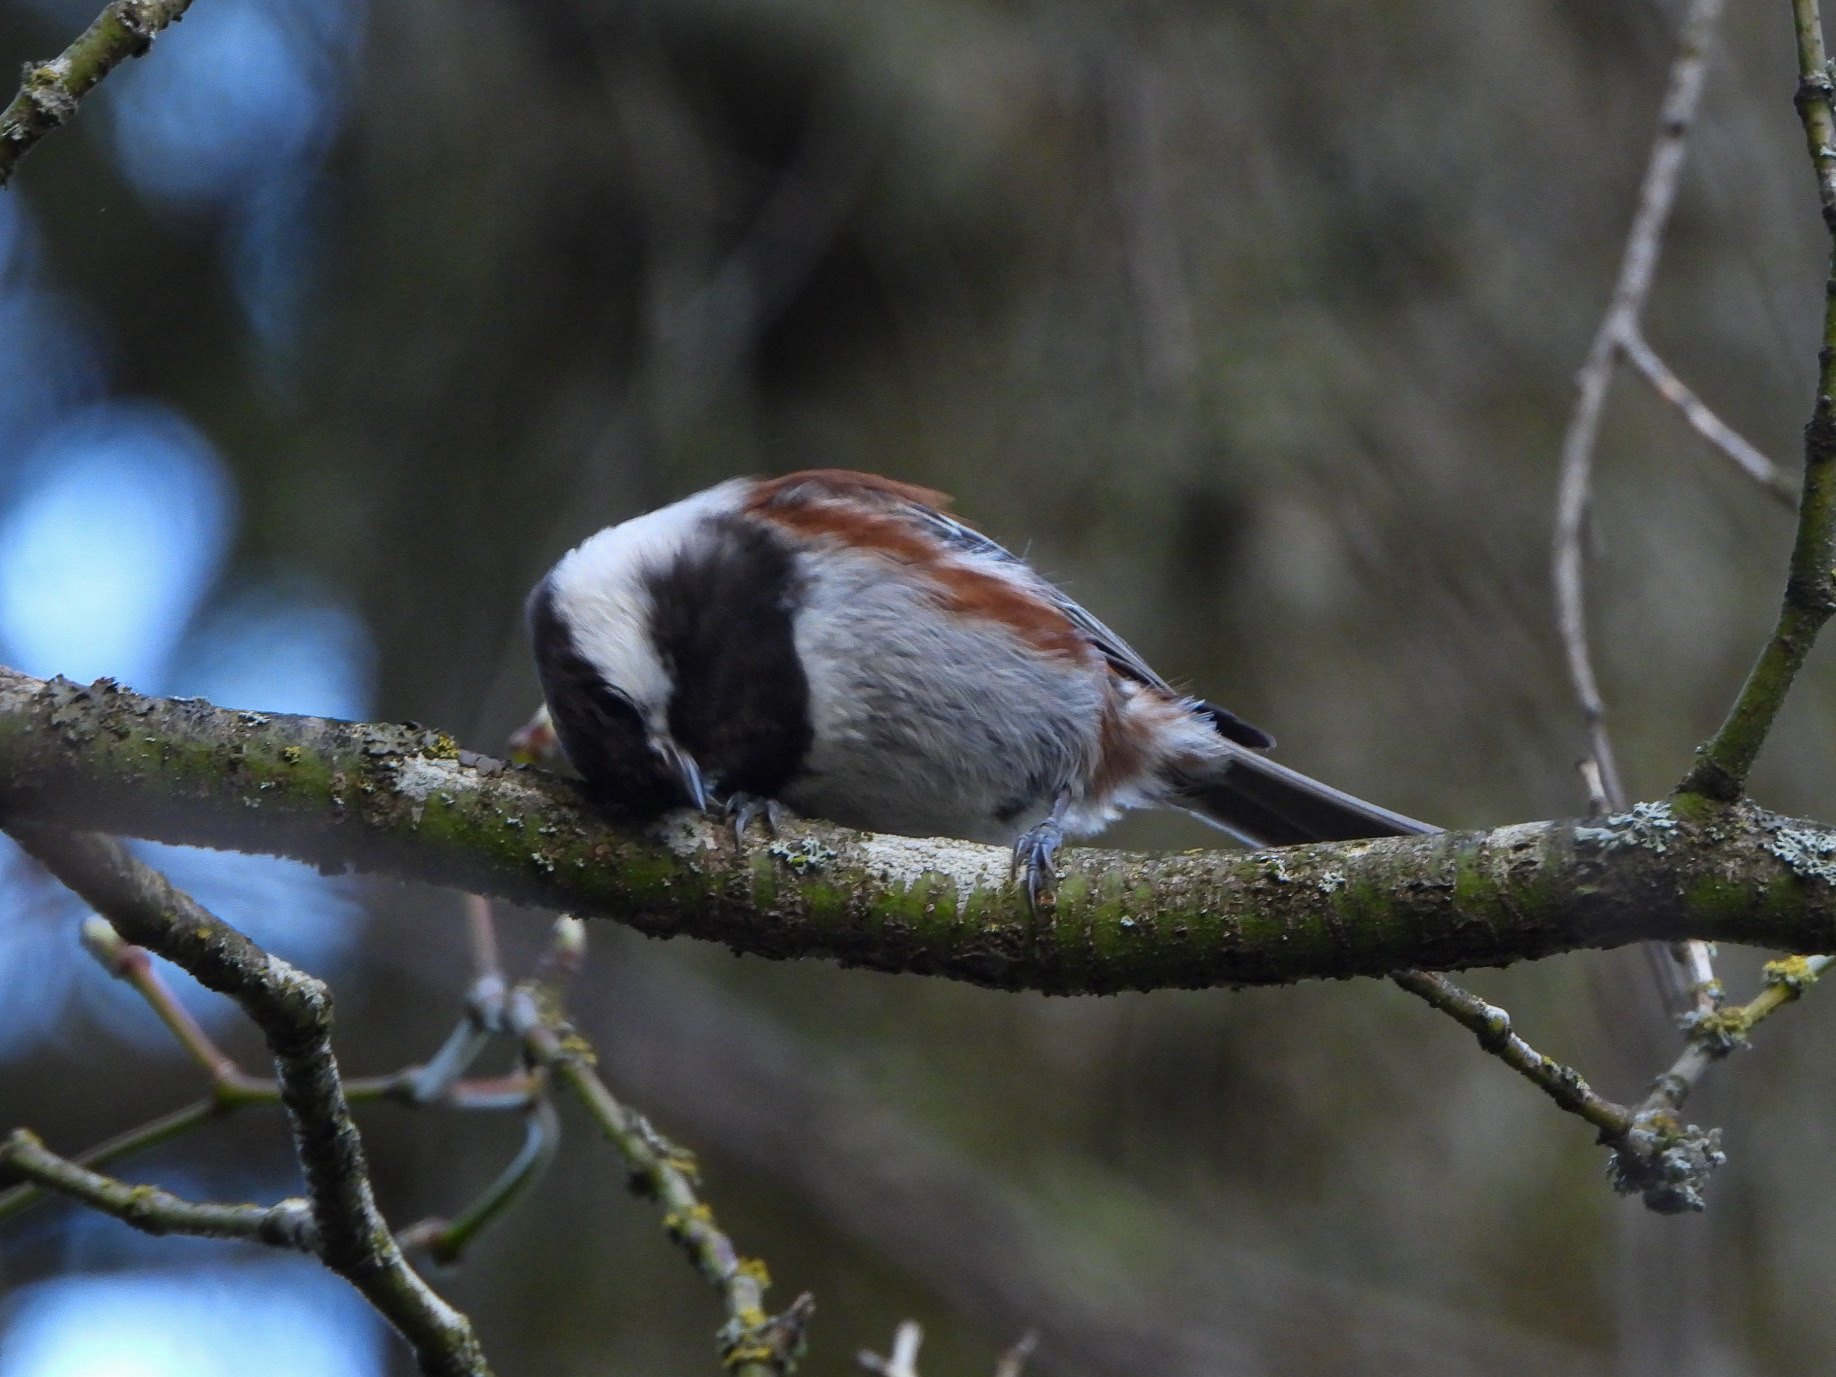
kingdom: Animalia
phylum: Chordata
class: Aves
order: Passeriformes
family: Paridae
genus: Poecile
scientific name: Poecile rufescens
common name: Chestnut-backed chickadee
